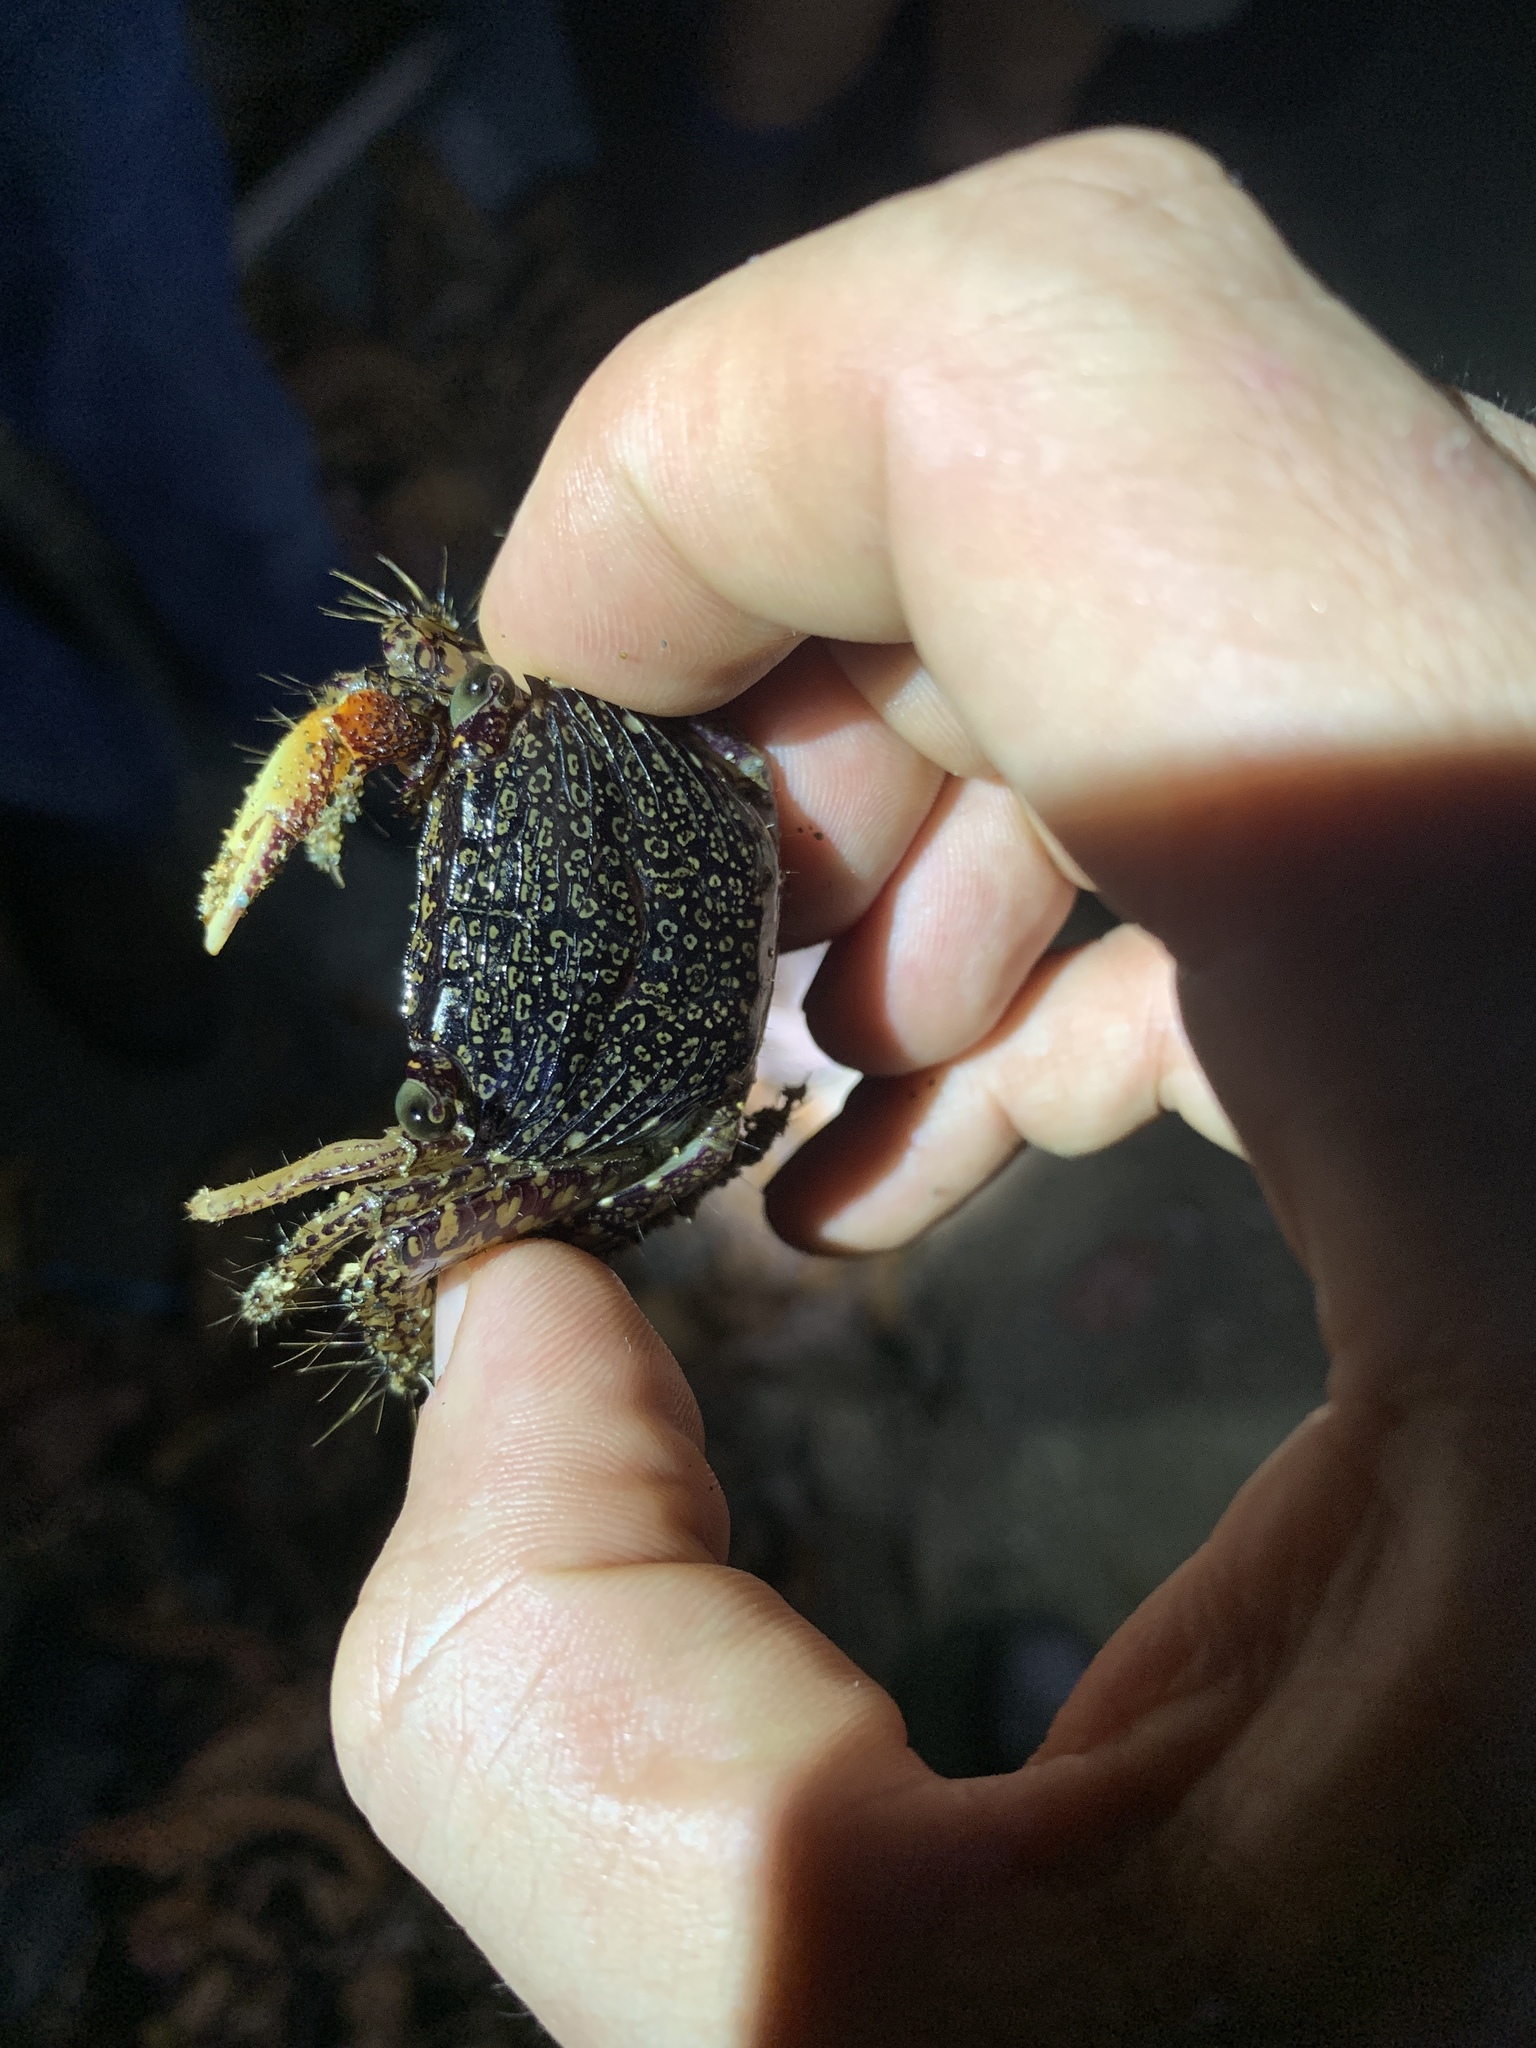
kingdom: Animalia
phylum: Arthropoda
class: Malacostraca
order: Decapoda
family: Grapsidae
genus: Goniopsis
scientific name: Goniopsis pulchra
